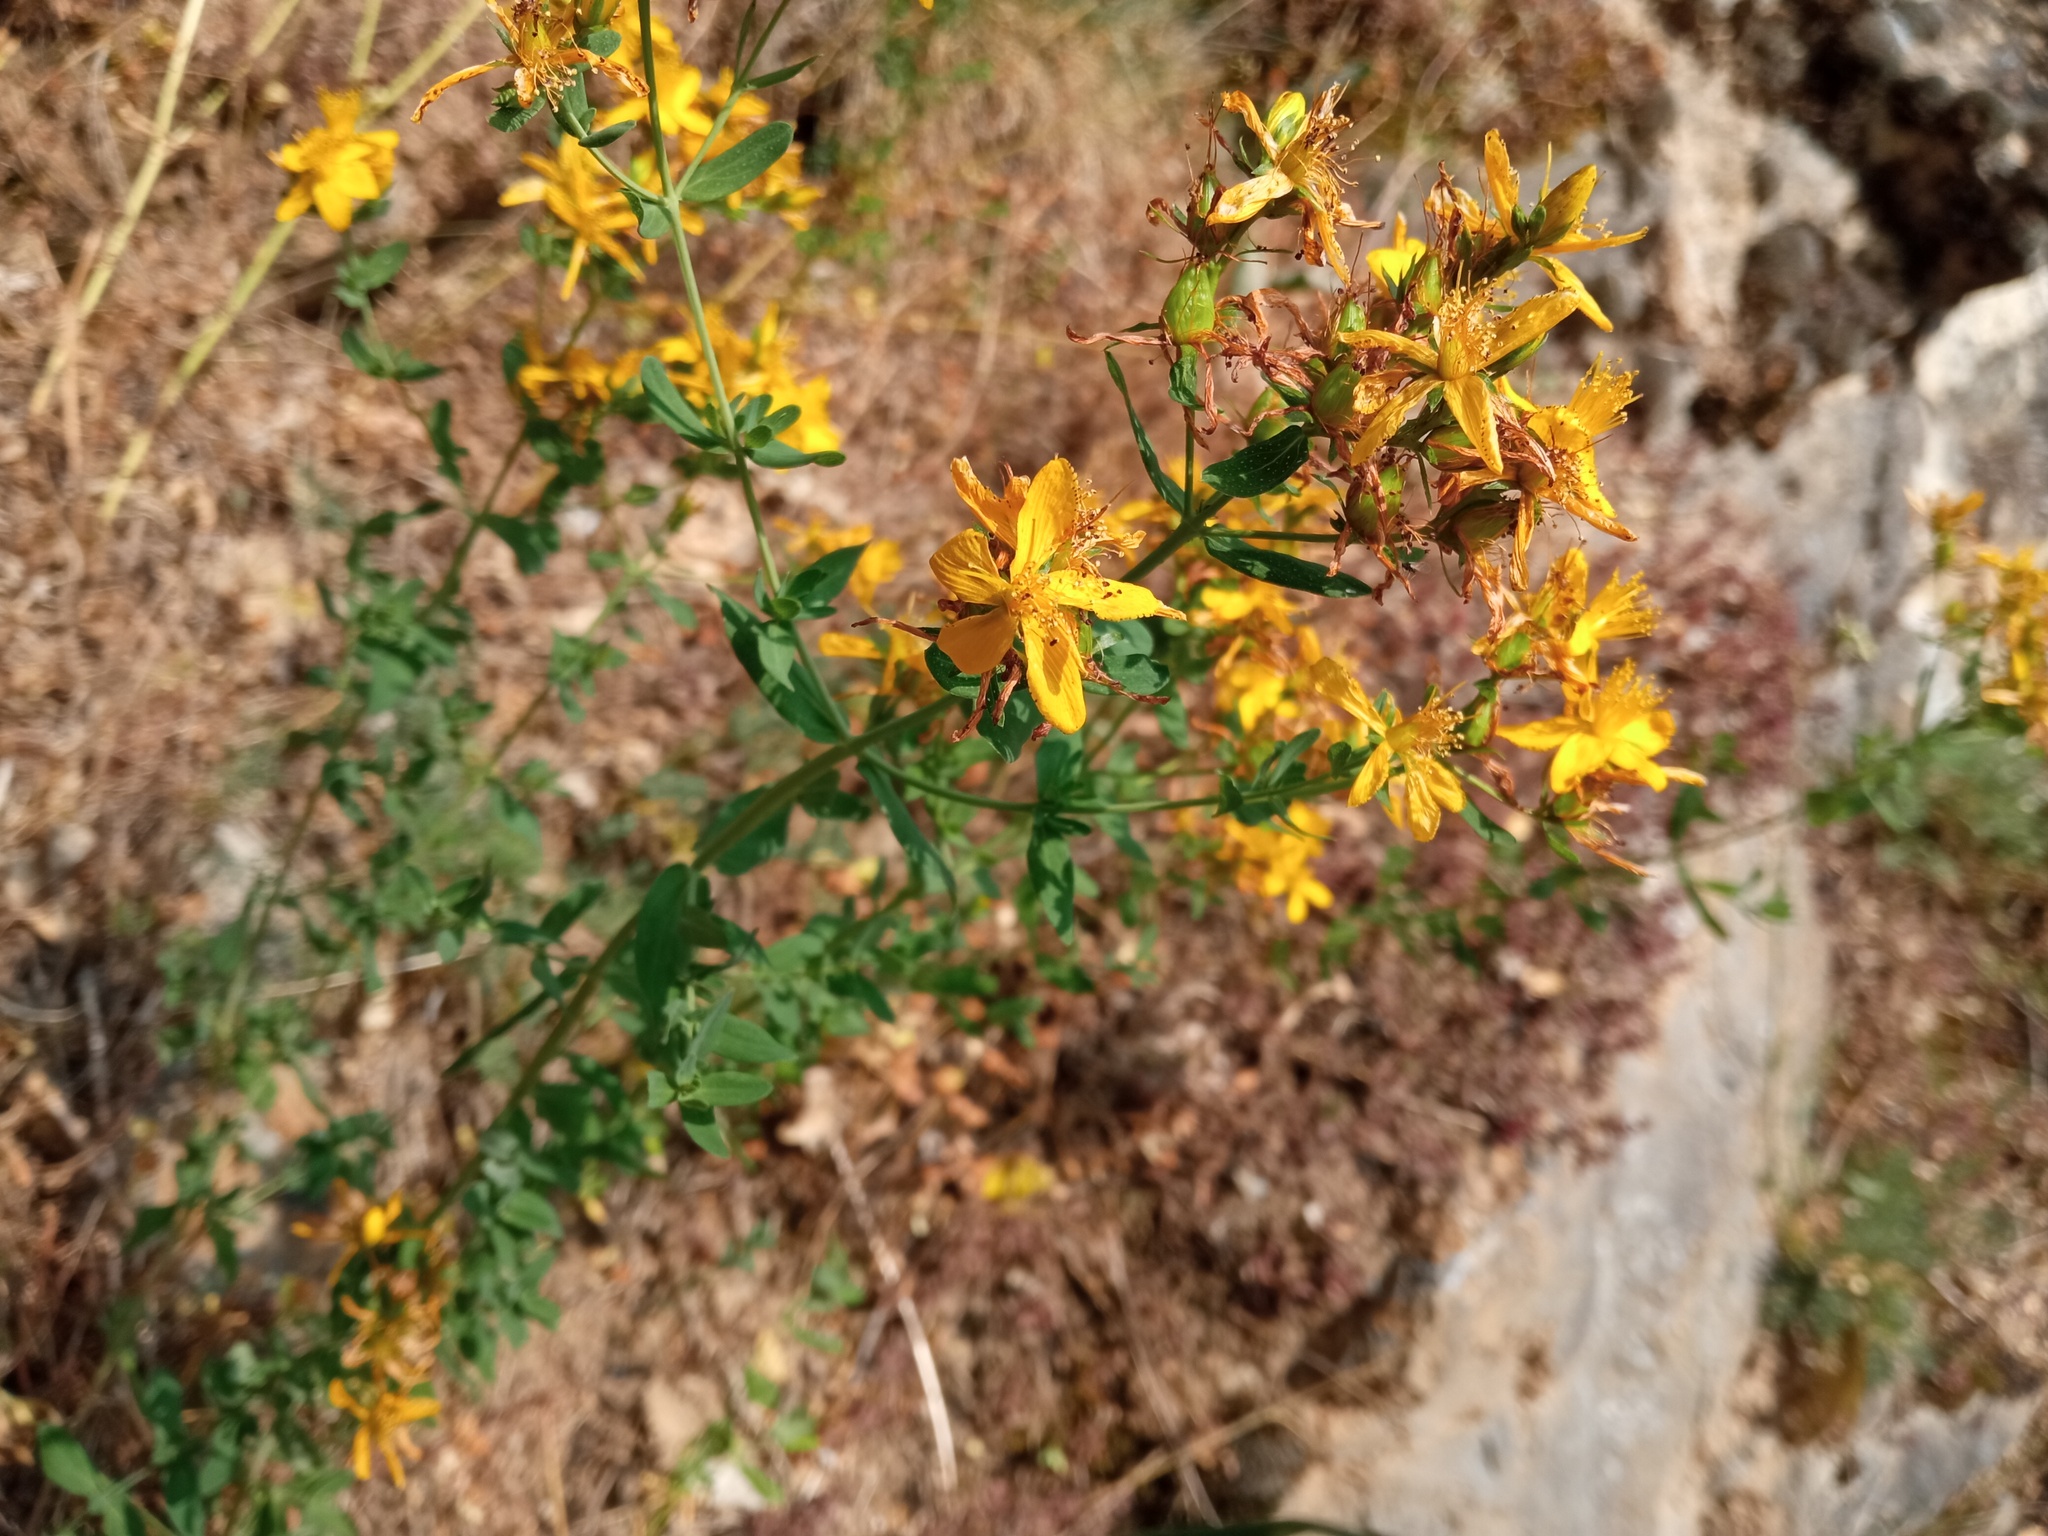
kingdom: Plantae
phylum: Tracheophyta
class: Magnoliopsida
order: Malpighiales
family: Hypericaceae
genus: Hypericum
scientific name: Hypericum perforatum
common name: Common st. johnswort
